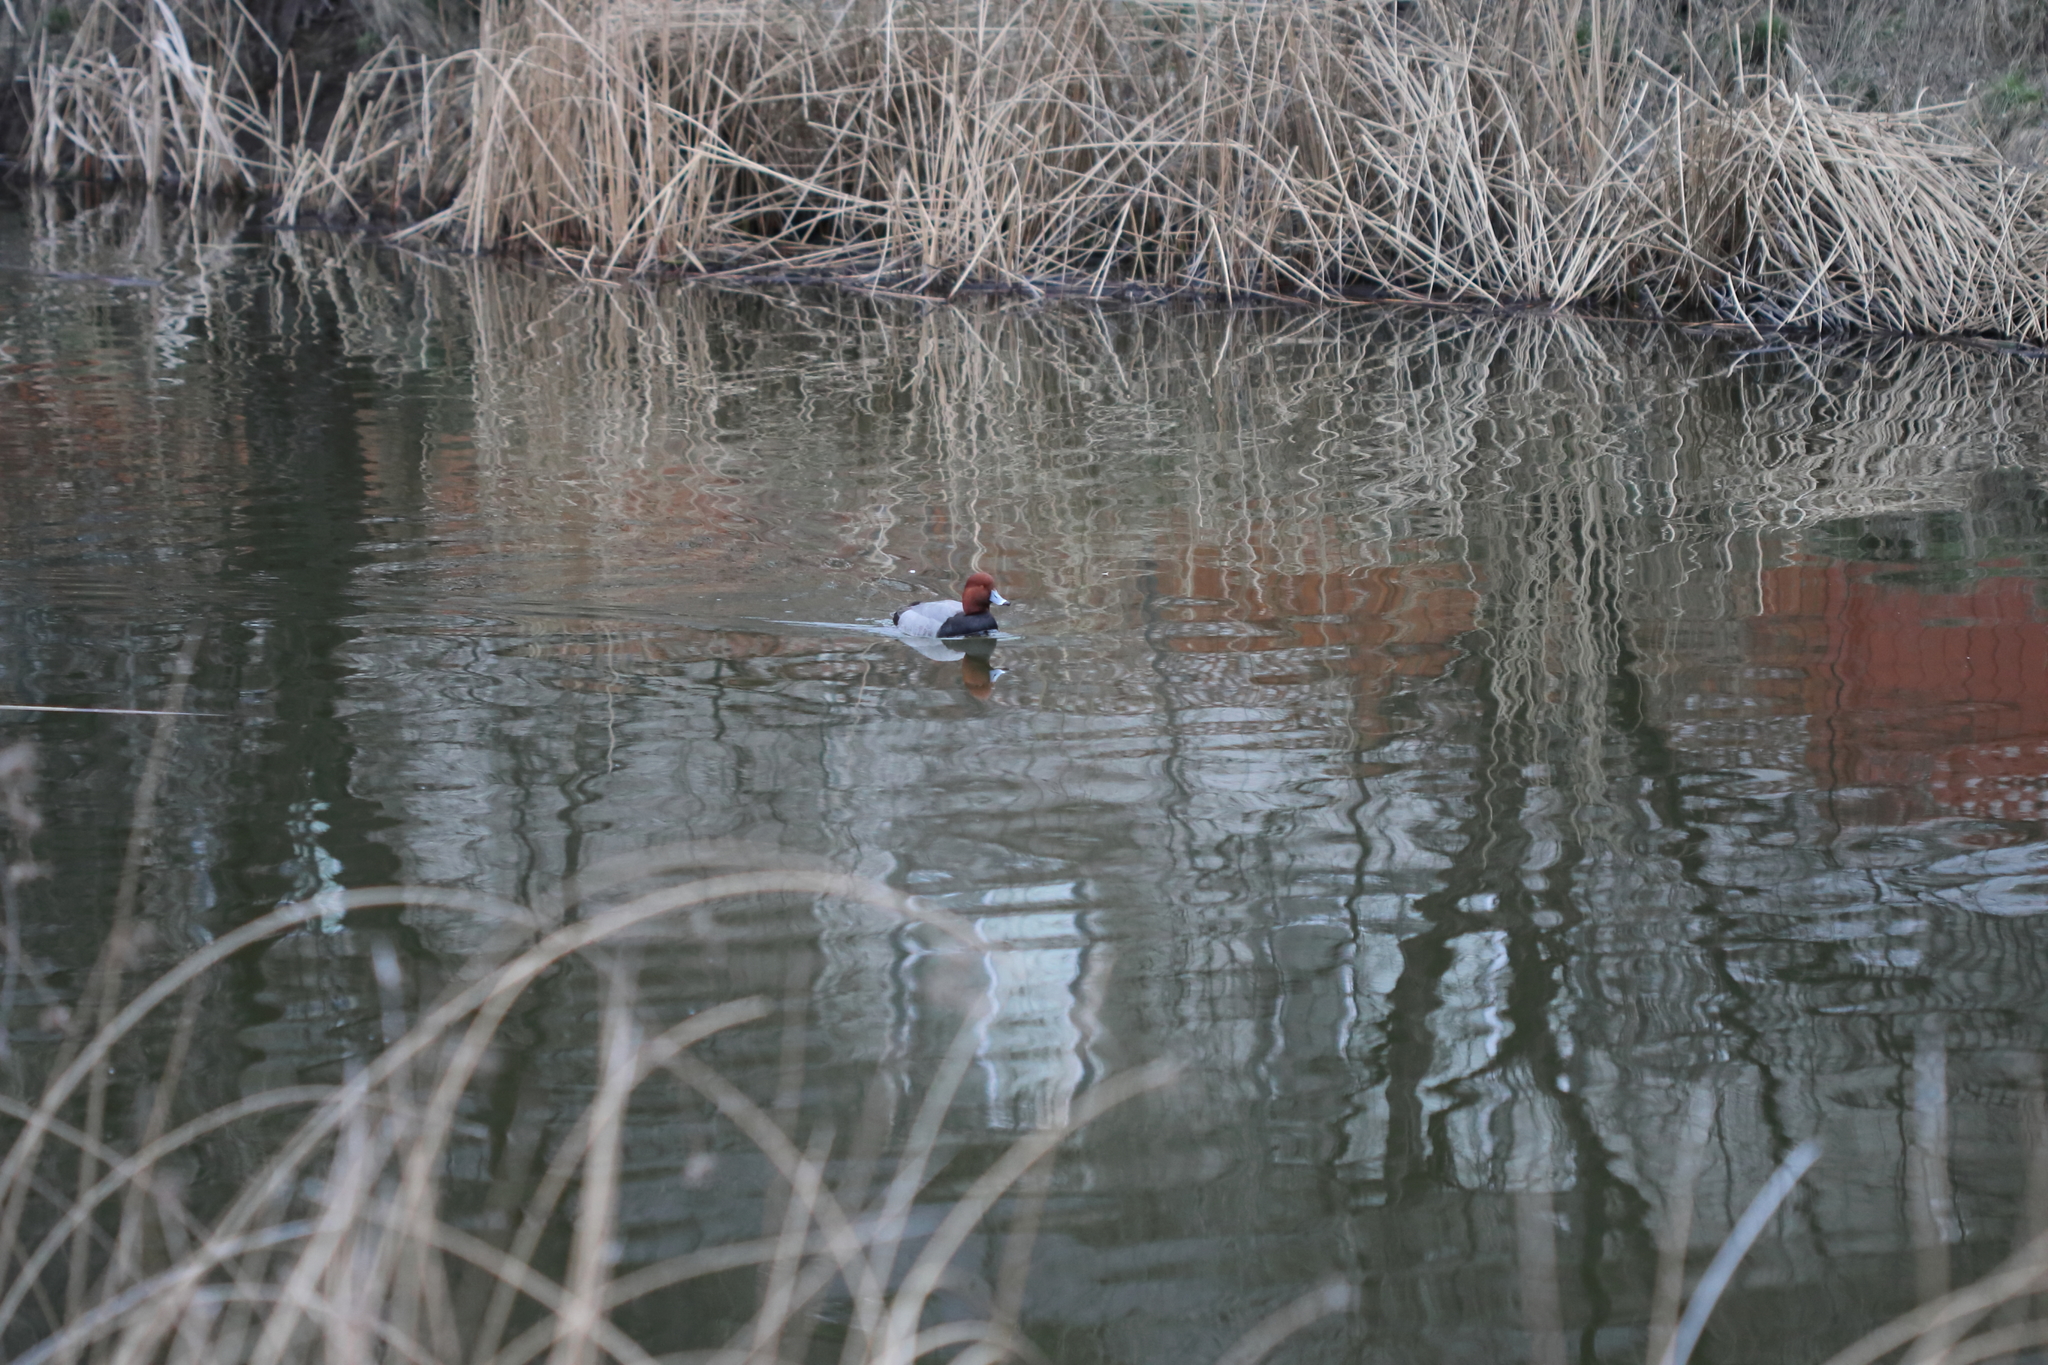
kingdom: Animalia
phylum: Chordata
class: Aves
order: Anseriformes
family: Anatidae
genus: Aythya
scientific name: Aythya americana
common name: Redhead
